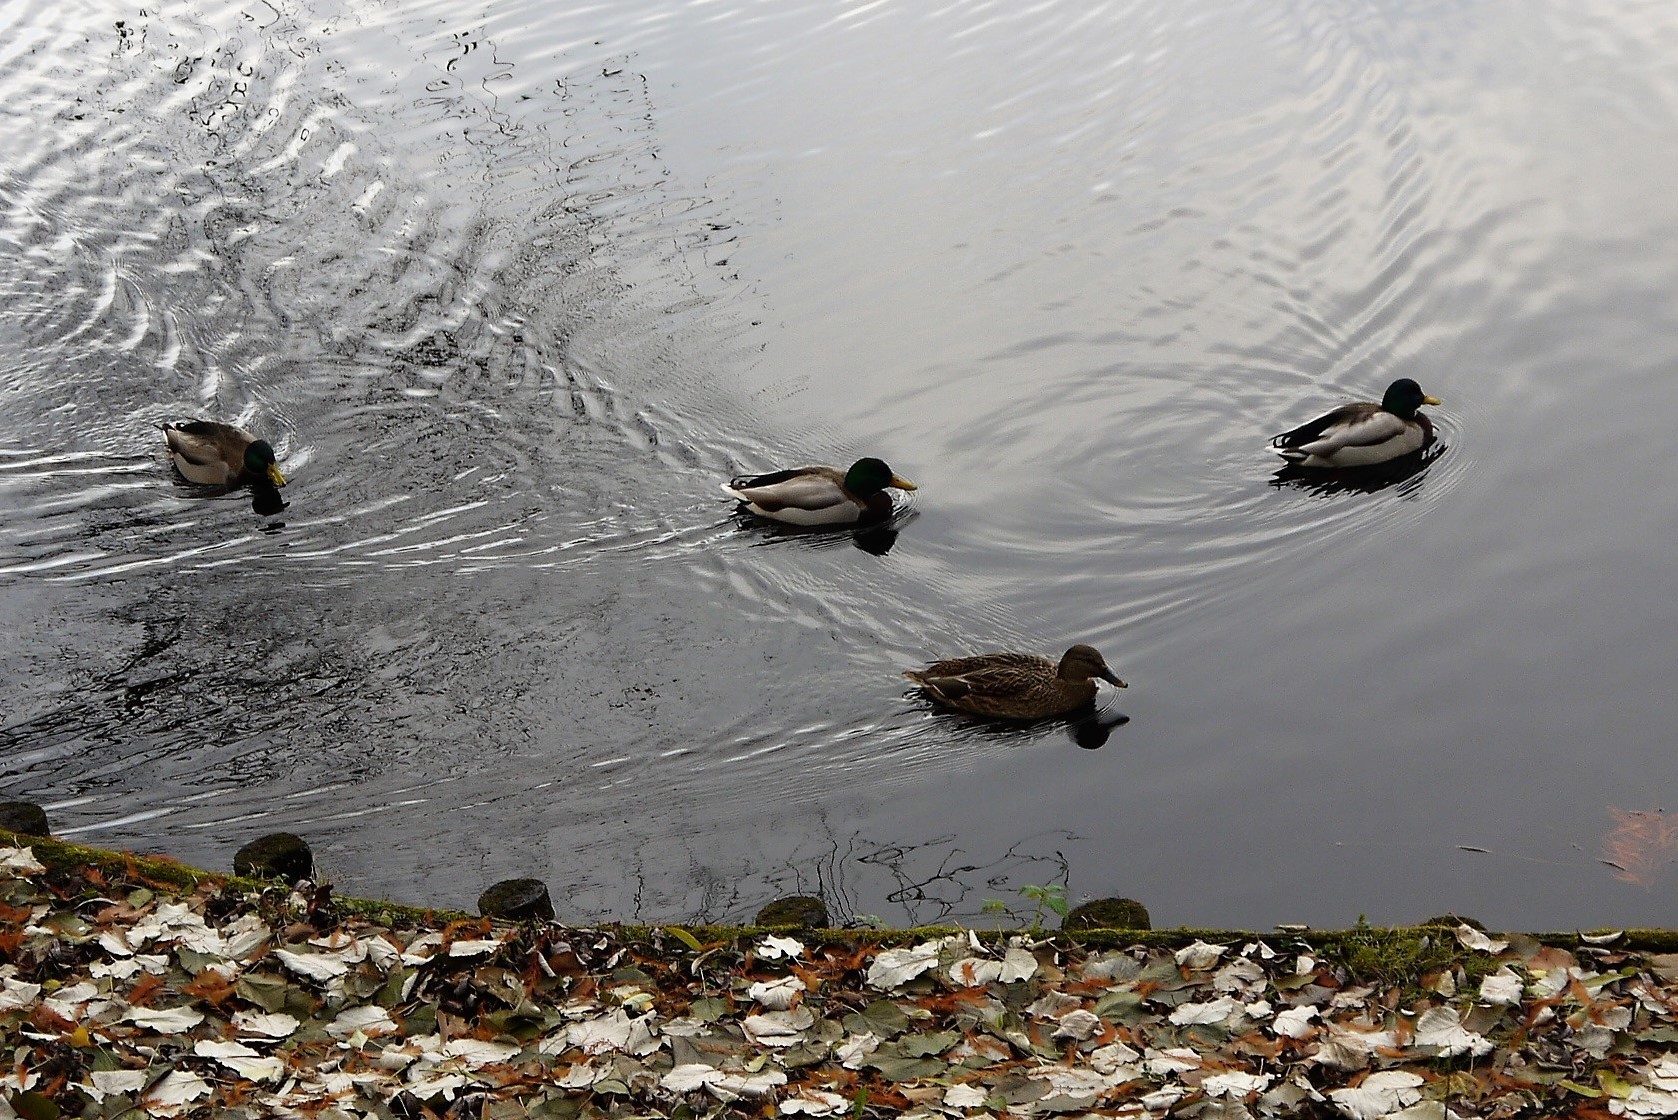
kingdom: Animalia
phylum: Chordata
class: Aves
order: Anseriformes
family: Anatidae
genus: Anas
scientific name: Anas platyrhynchos
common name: Mallard
